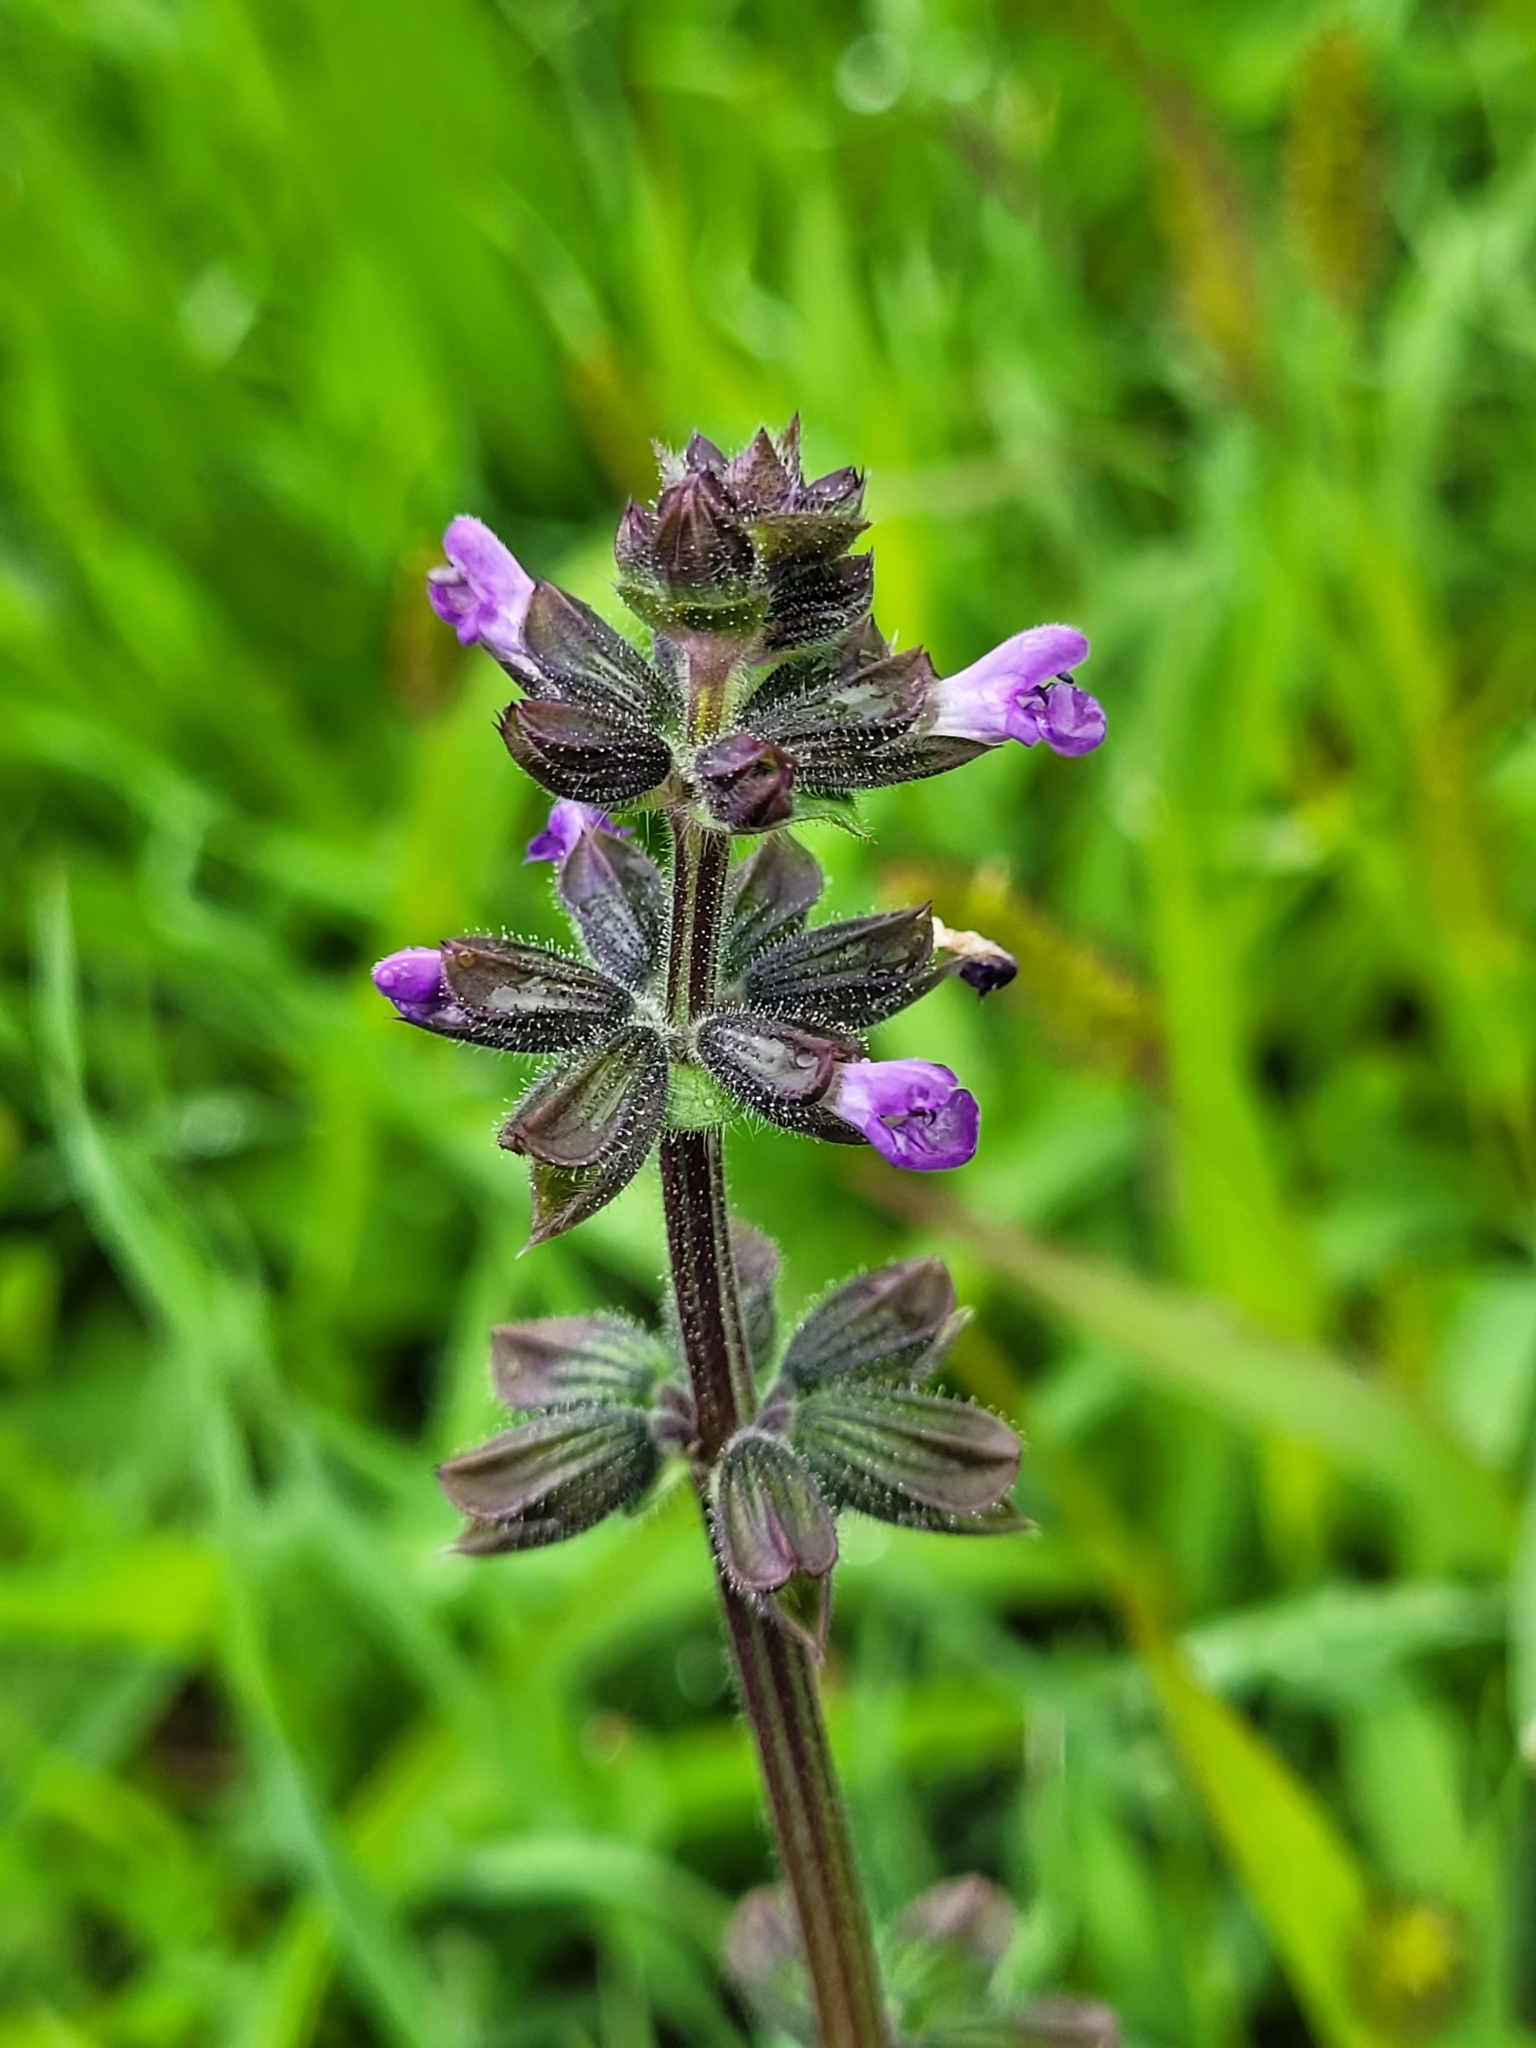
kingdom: Plantae
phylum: Tracheophyta
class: Magnoliopsida
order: Lamiales
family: Lamiaceae
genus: Salvia
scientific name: Salvia verbenaca
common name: Wild clary
